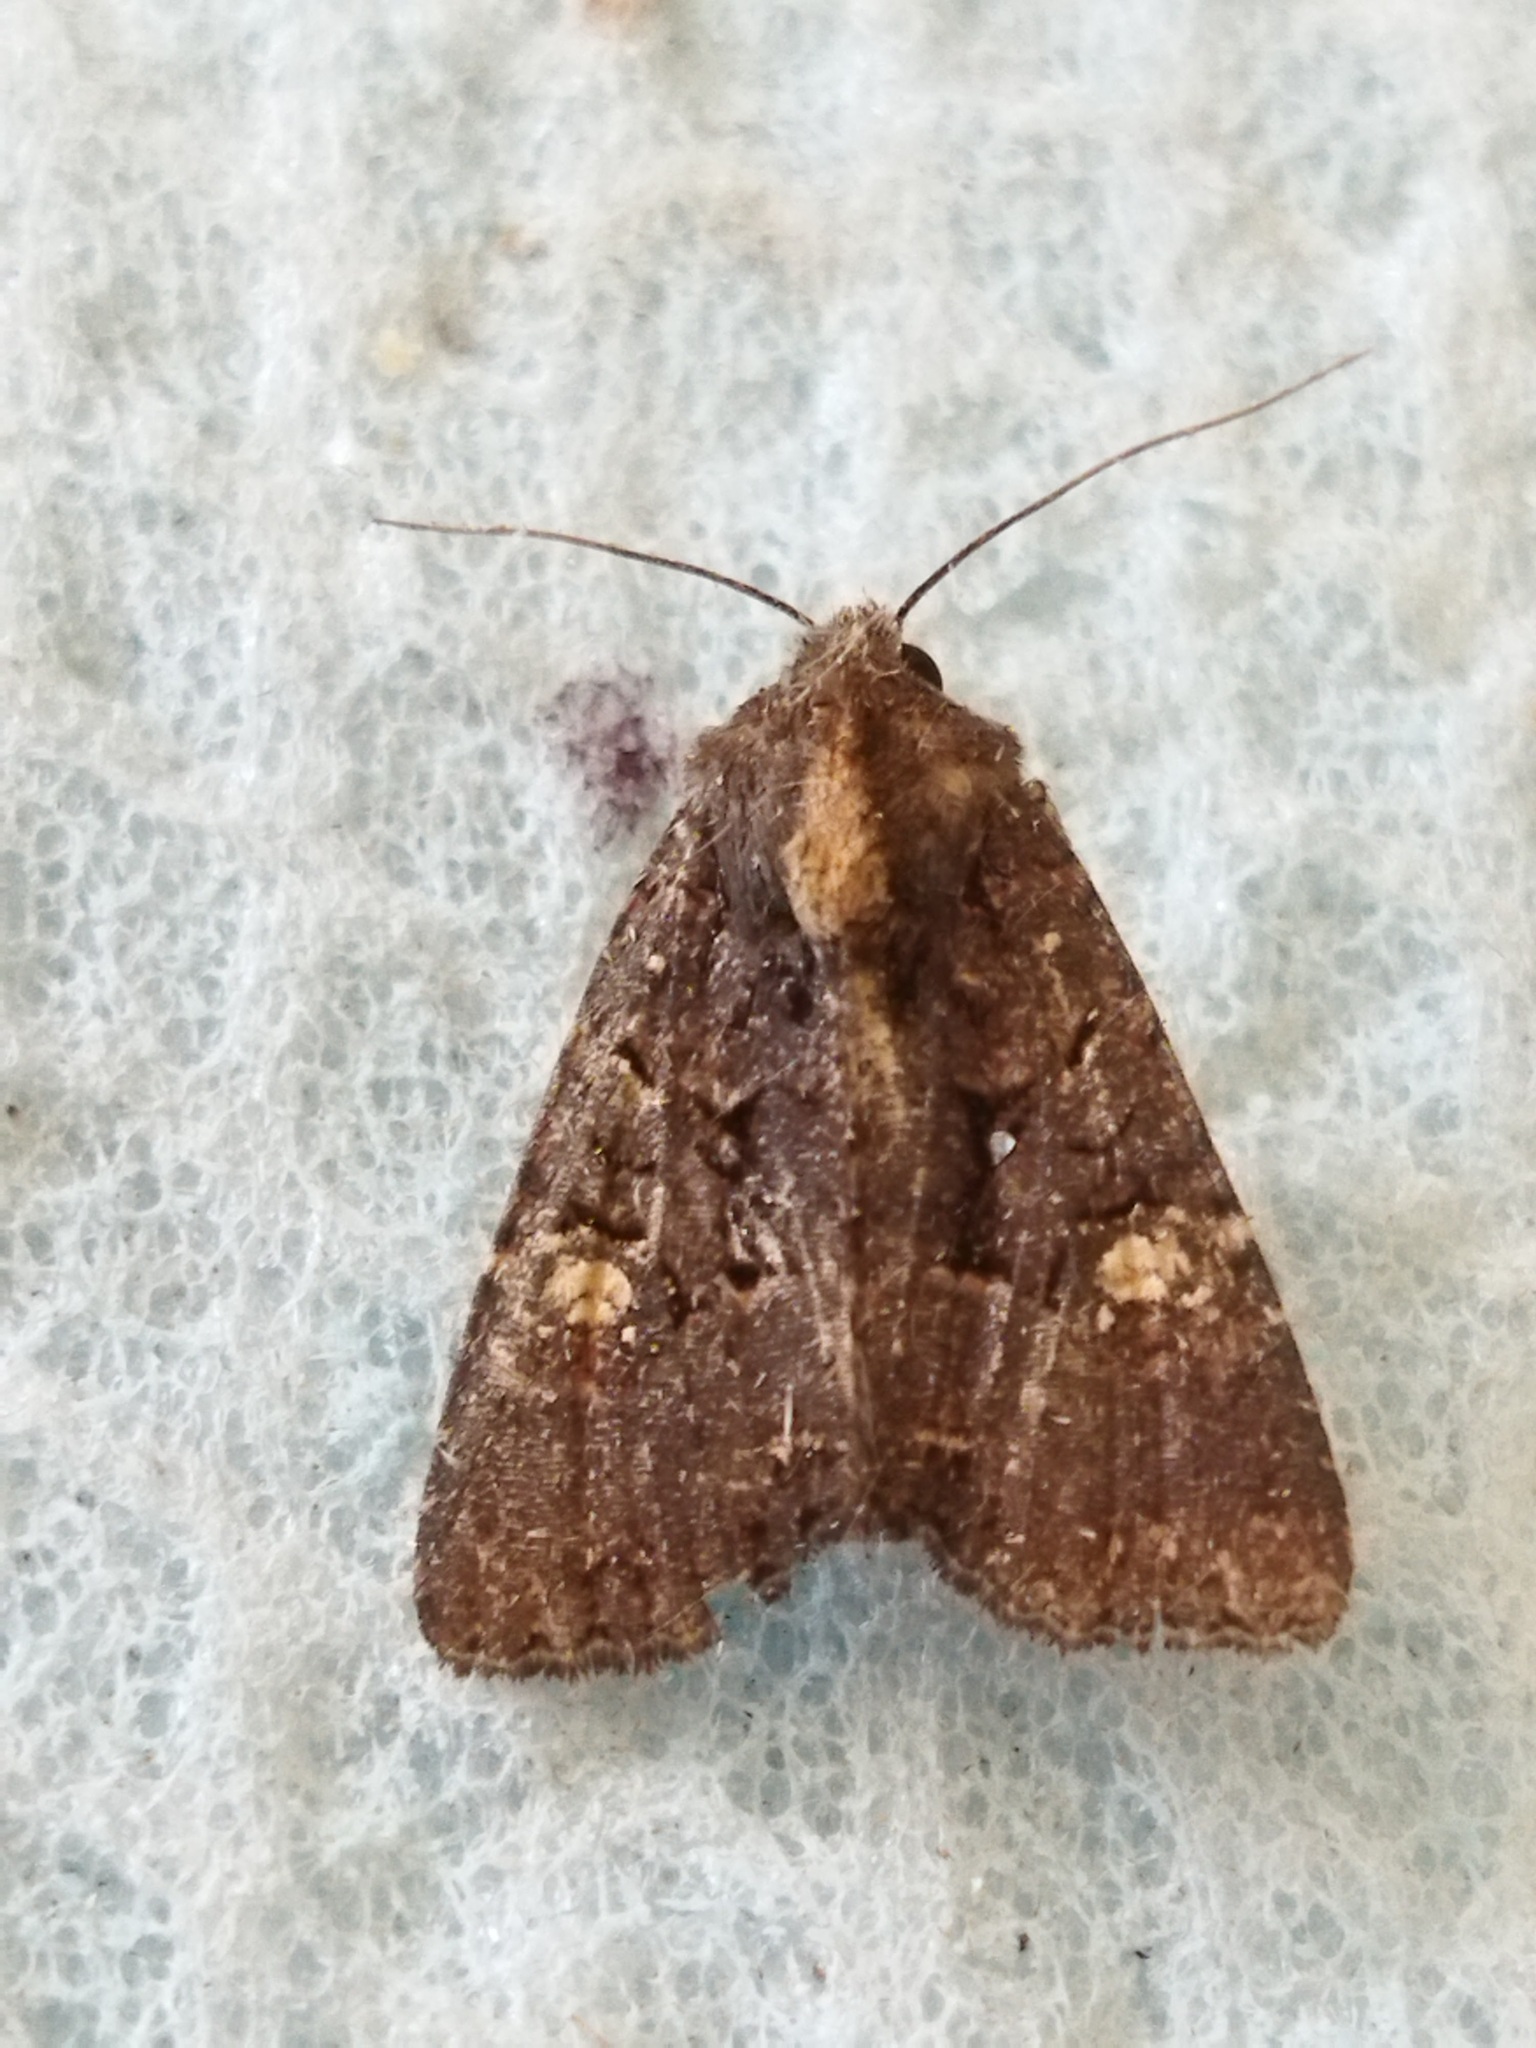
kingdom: Animalia
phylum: Arthropoda
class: Insecta
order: Lepidoptera
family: Noctuidae
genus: Mesapamea
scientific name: Mesapamea
